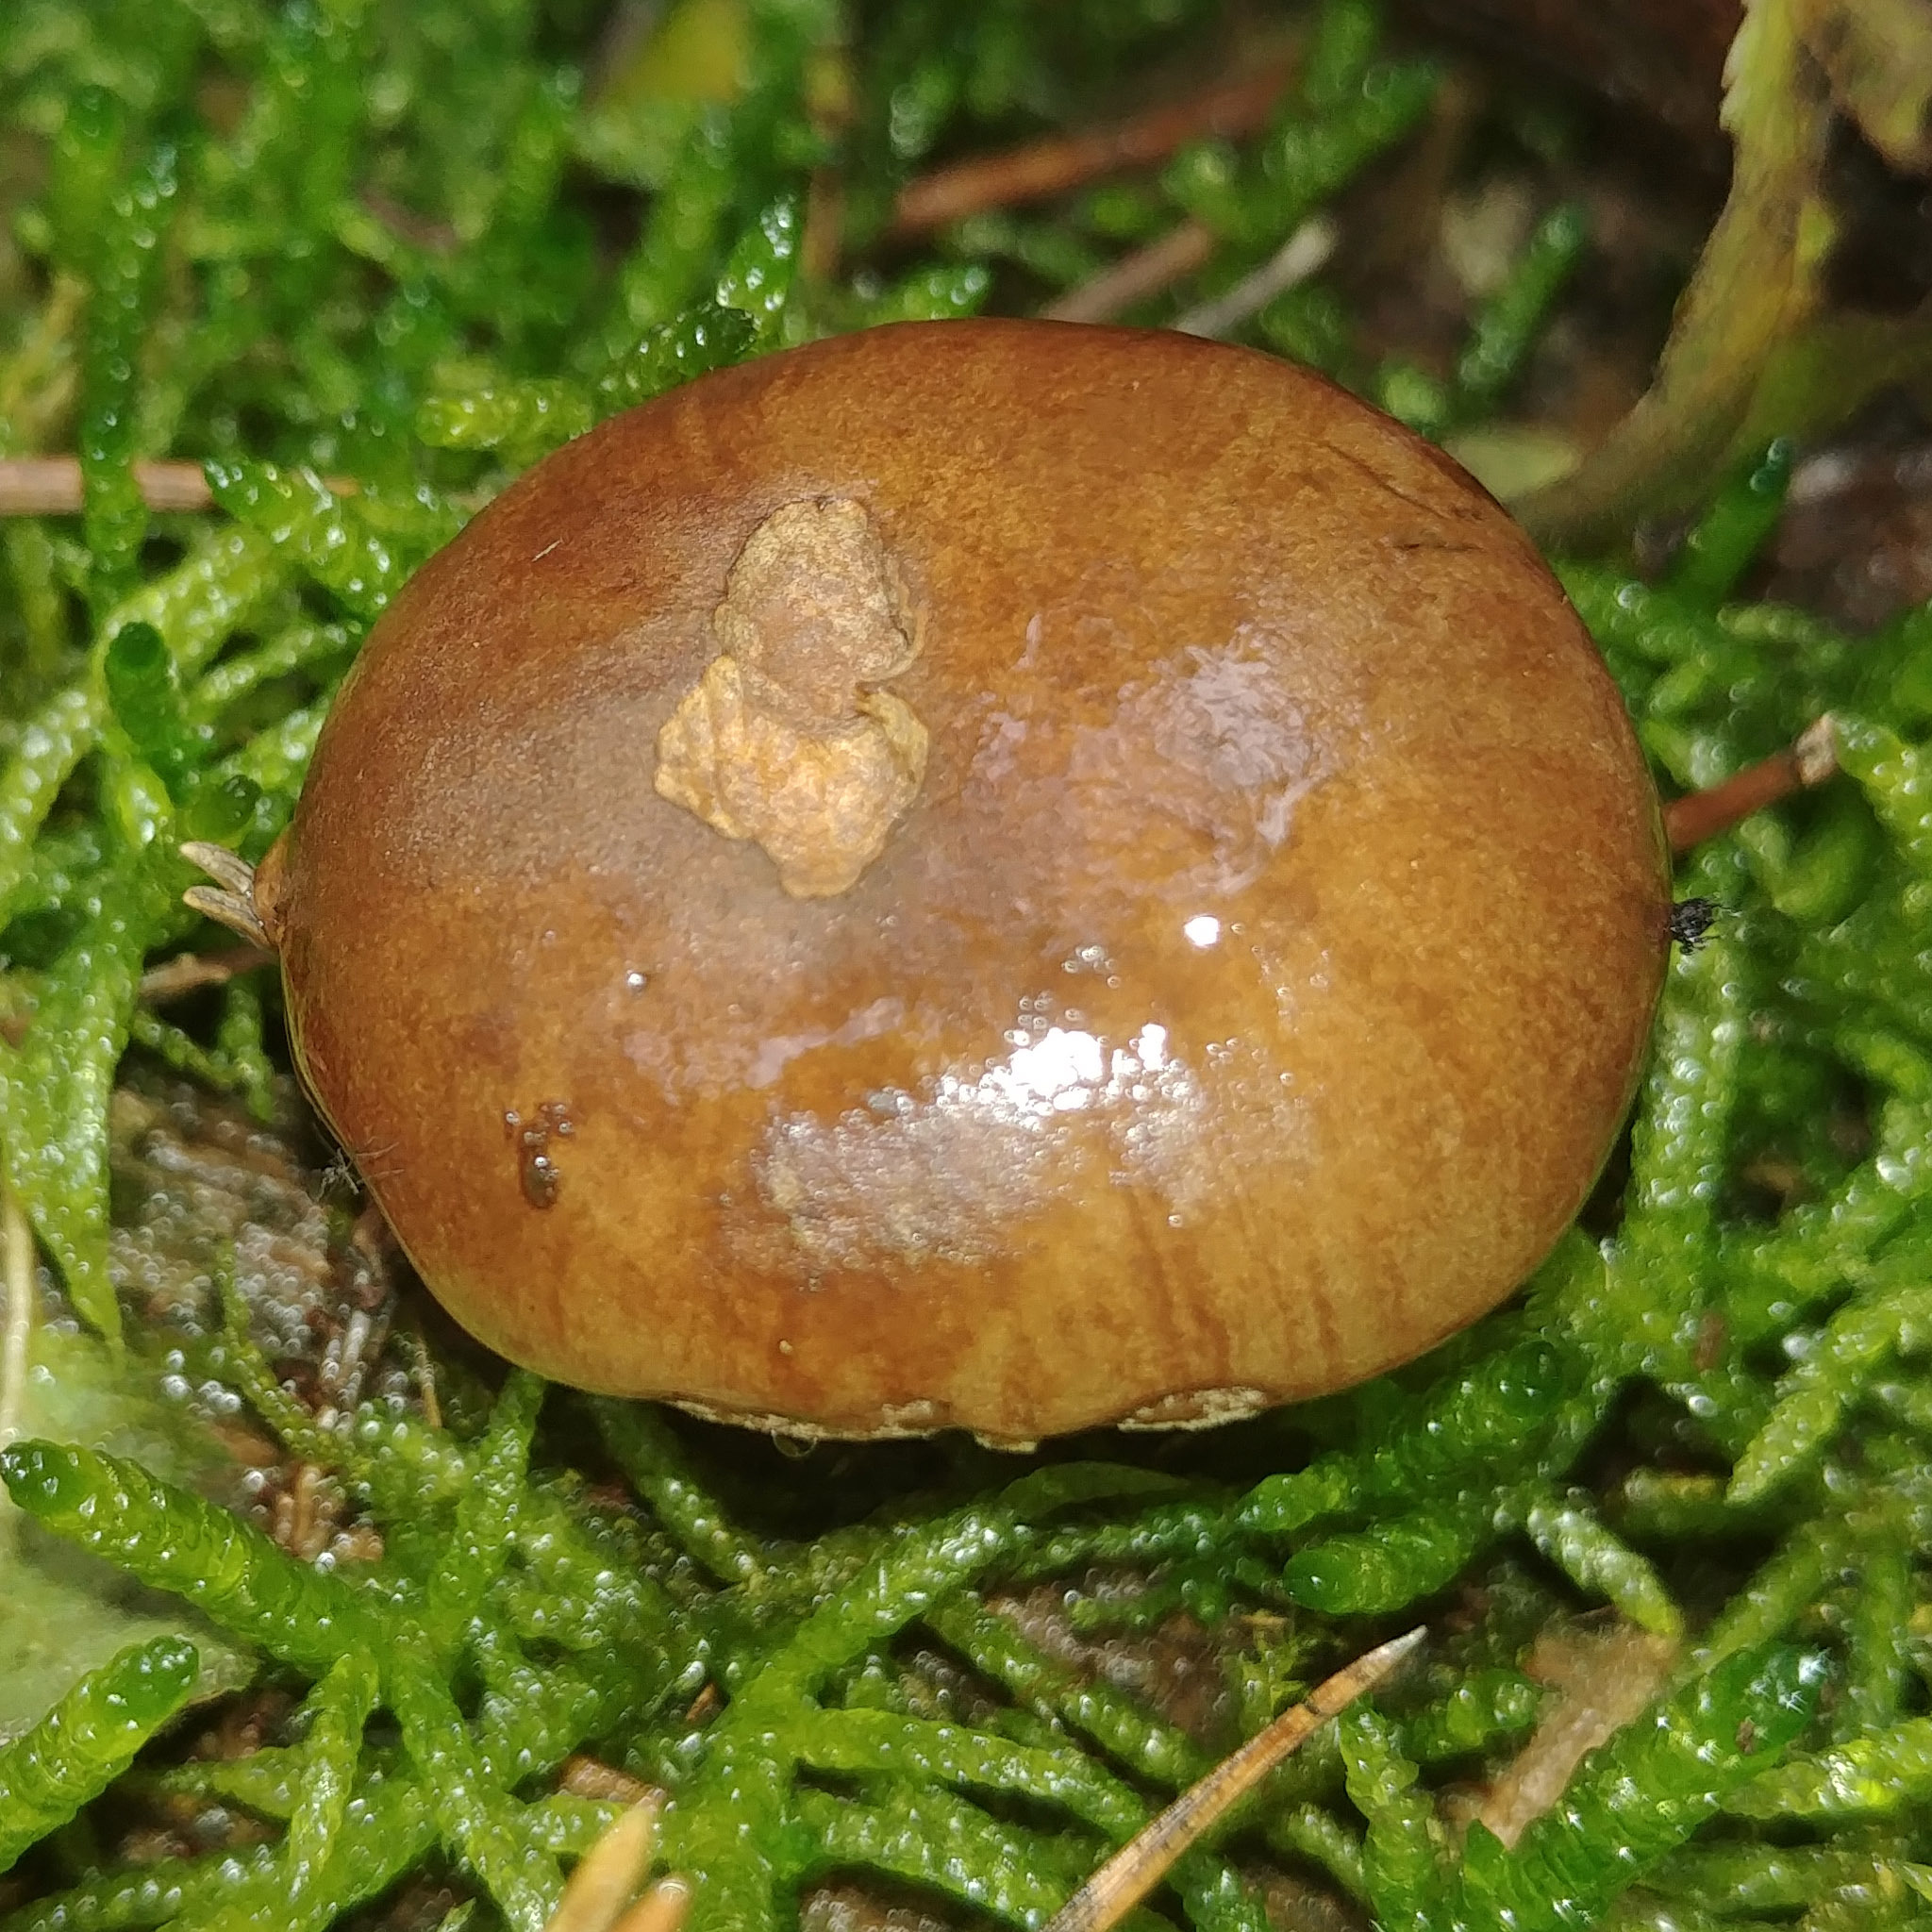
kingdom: Fungi
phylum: Basidiomycota
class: Agaricomycetes
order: Boletales
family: Boletaceae
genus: Imleria
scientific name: Imleria badia
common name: Bay bolete
